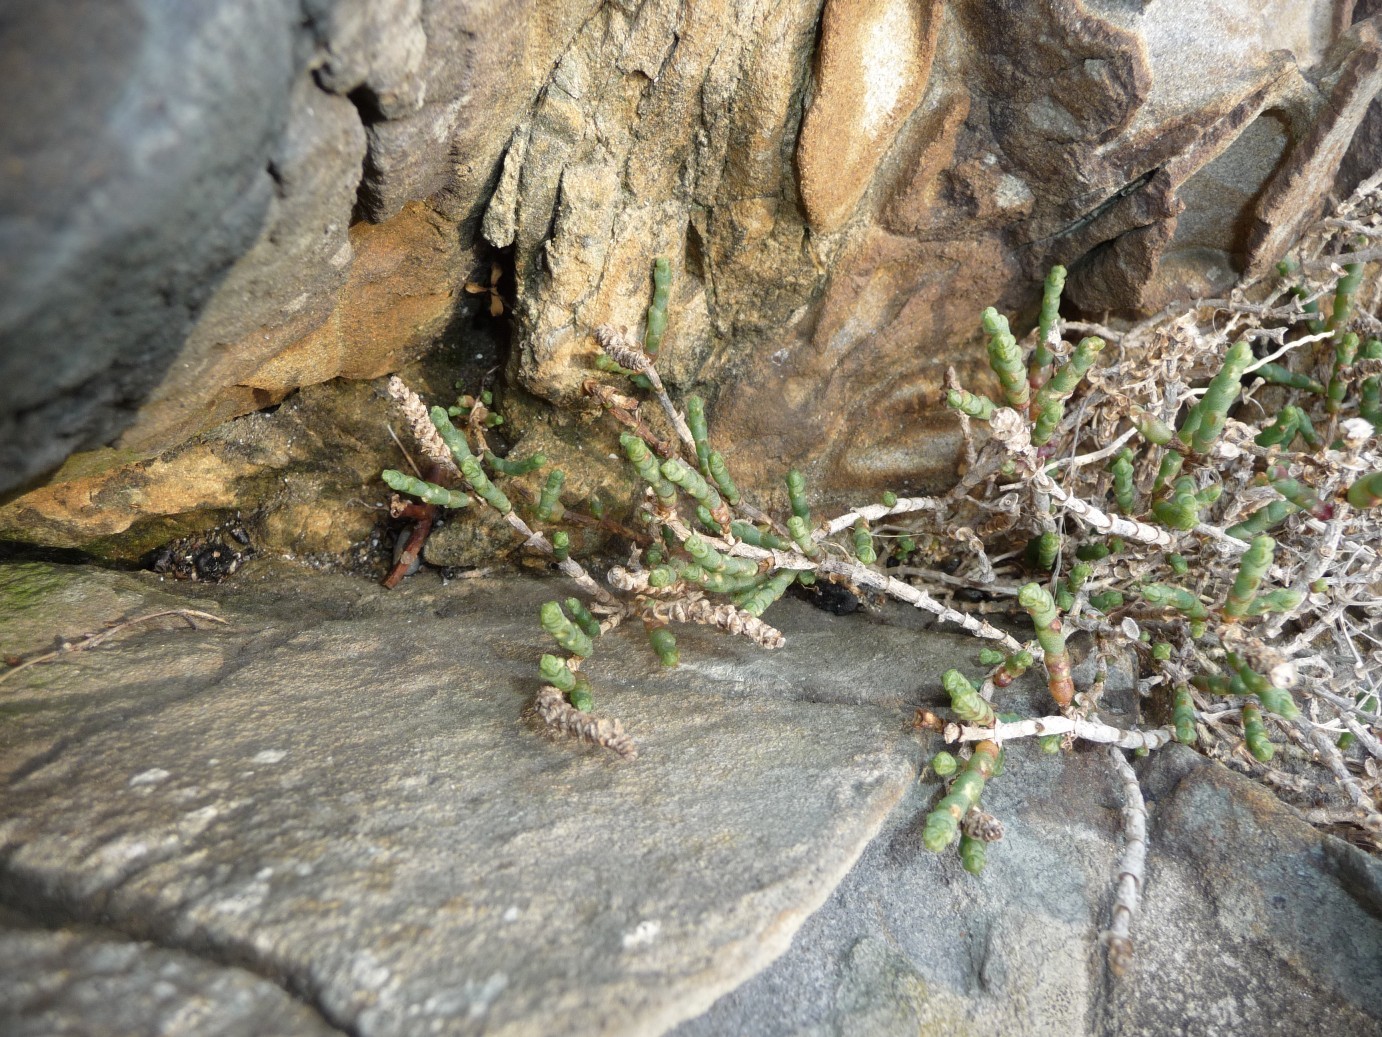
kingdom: Plantae
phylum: Tracheophyta
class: Magnoliopsida
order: Caryophyllales
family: Amaranthaceae
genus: Salicornia
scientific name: Salicornia quinqueflora
